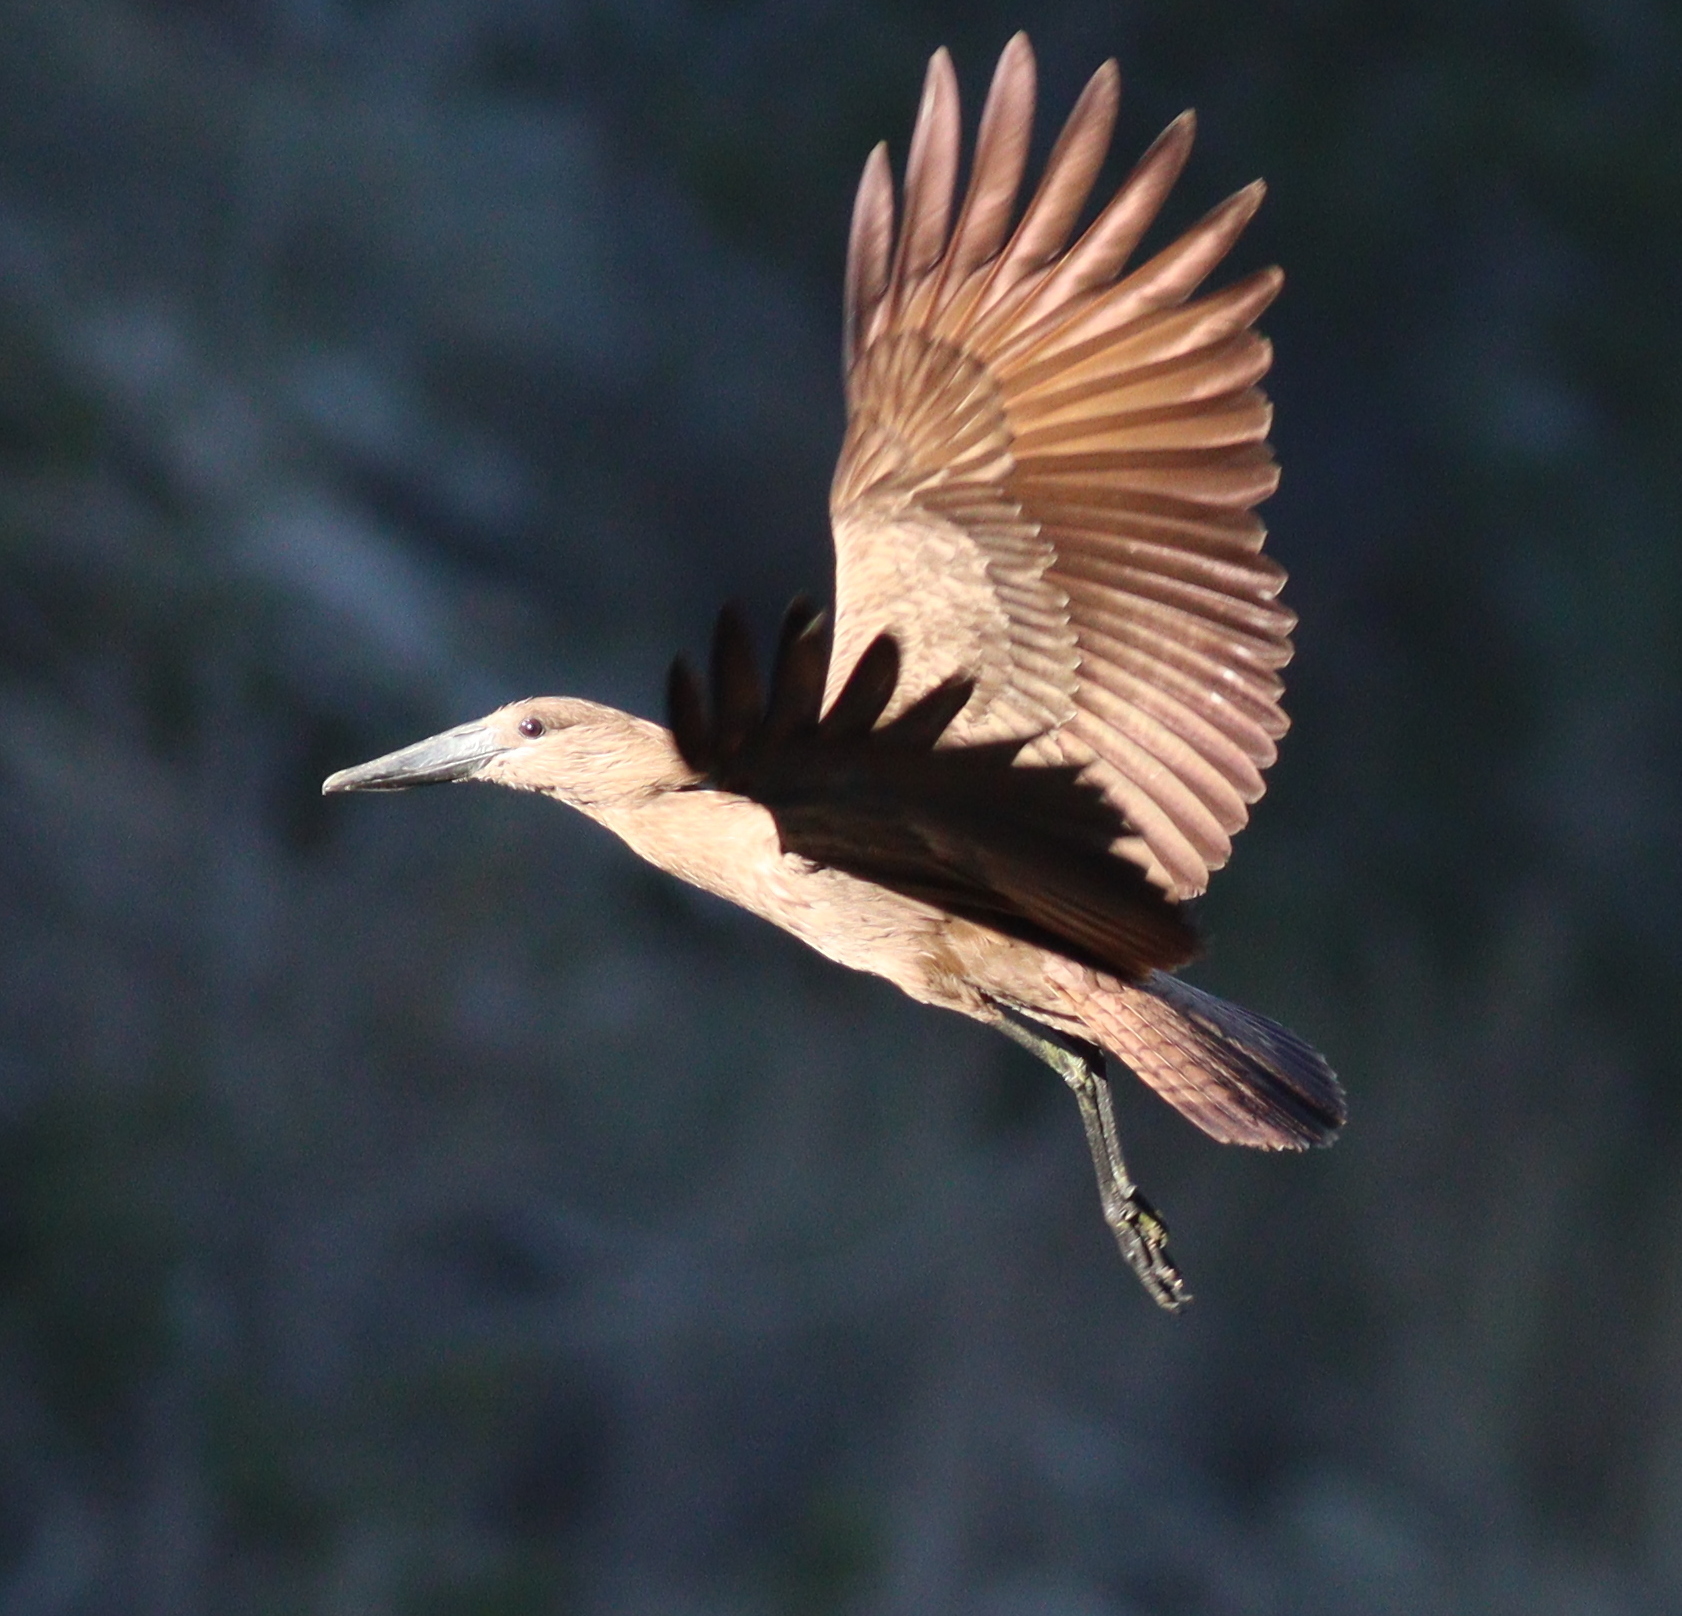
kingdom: Animalia
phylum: Chordata
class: Aves
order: Pelecaniformes
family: Scopidae
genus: Scopus
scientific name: Scopus umbretta
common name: Hamerkop
